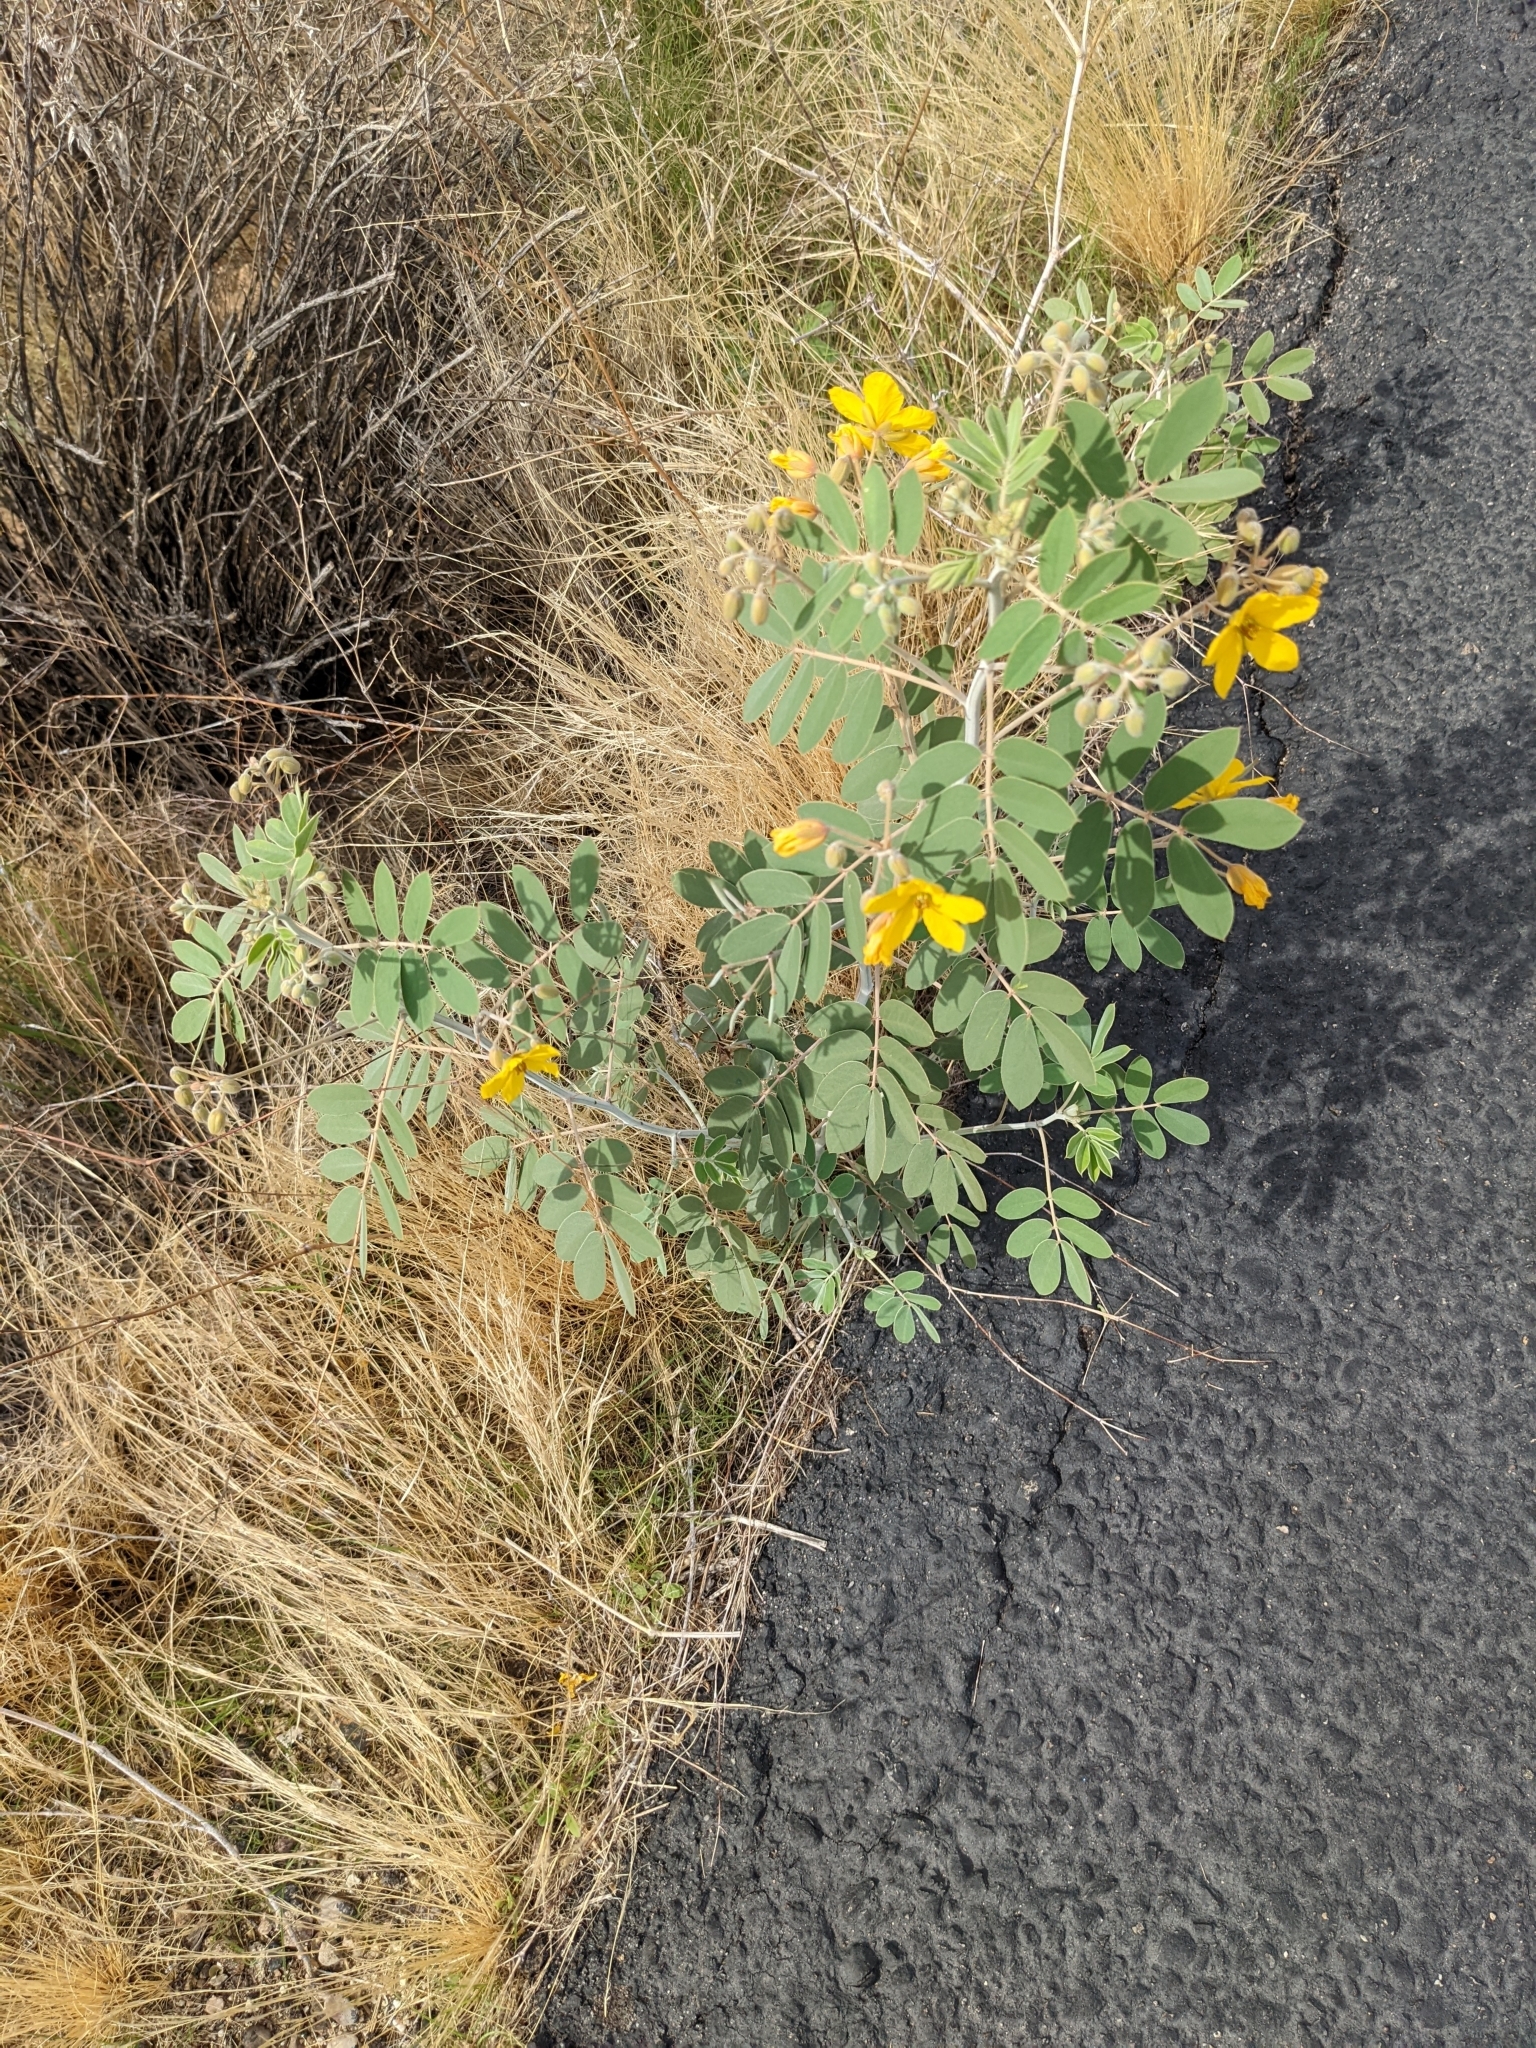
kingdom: Plantae
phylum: Tracheophyta
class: Magnoliopsida
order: Fabales
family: Fabaceae
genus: Senna
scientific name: Senna covesii
